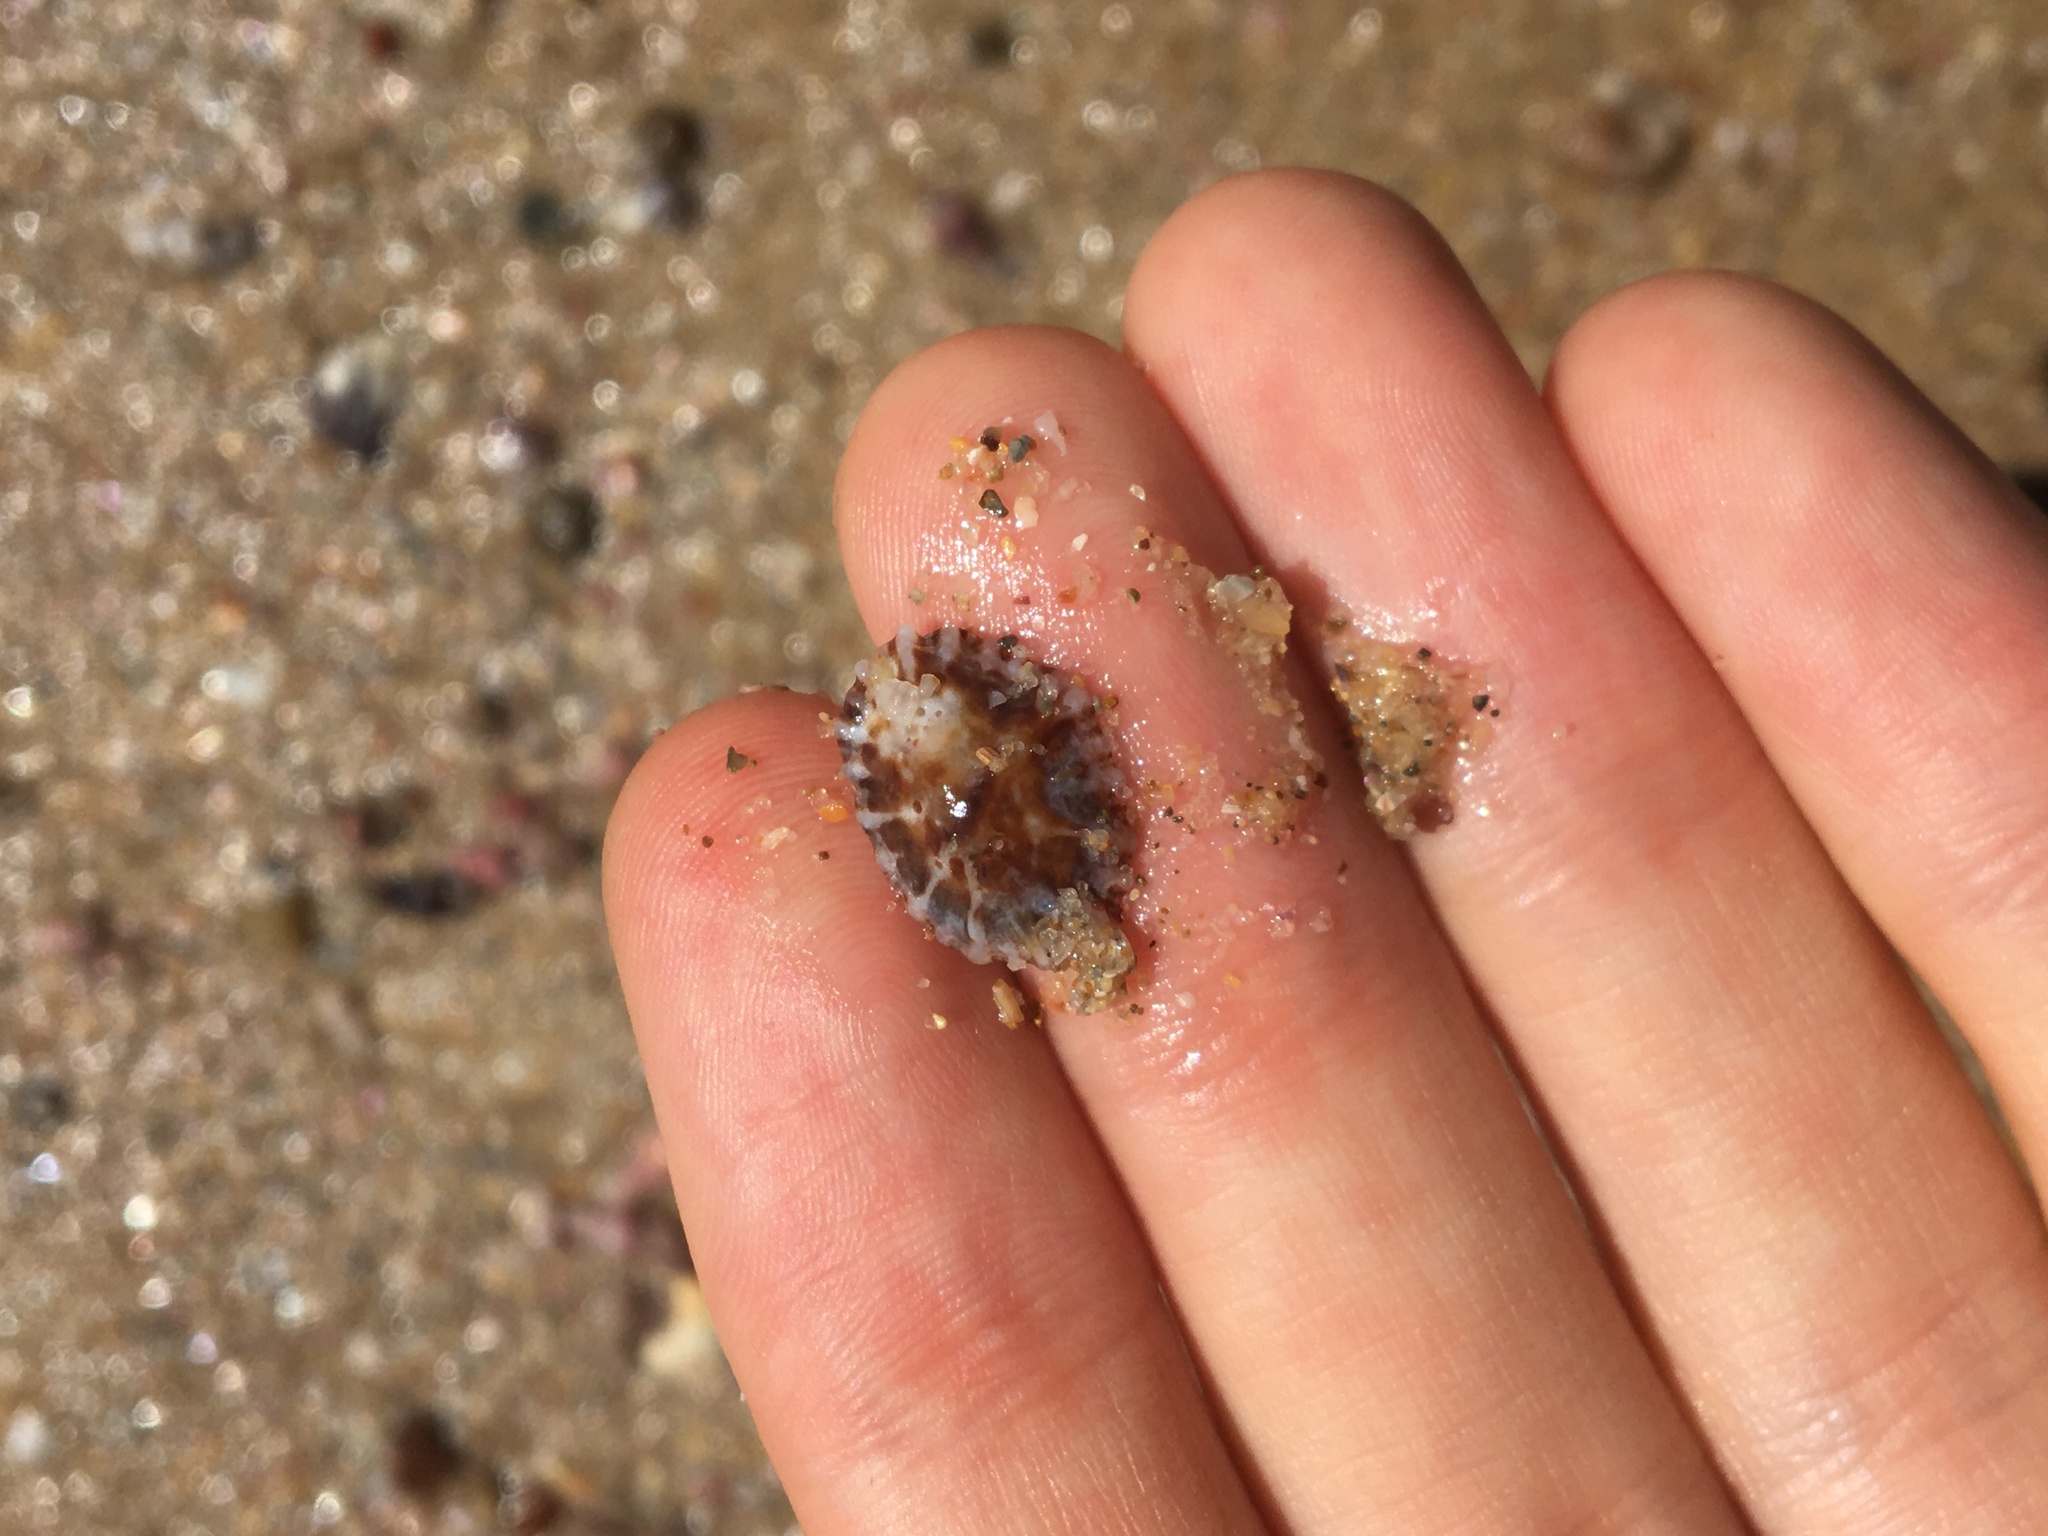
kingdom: Animalia
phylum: Mollusca
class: Gastropoda
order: Siphonariida
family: Siphonariidae
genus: Siphonaria
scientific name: Siphonaria denticulata
